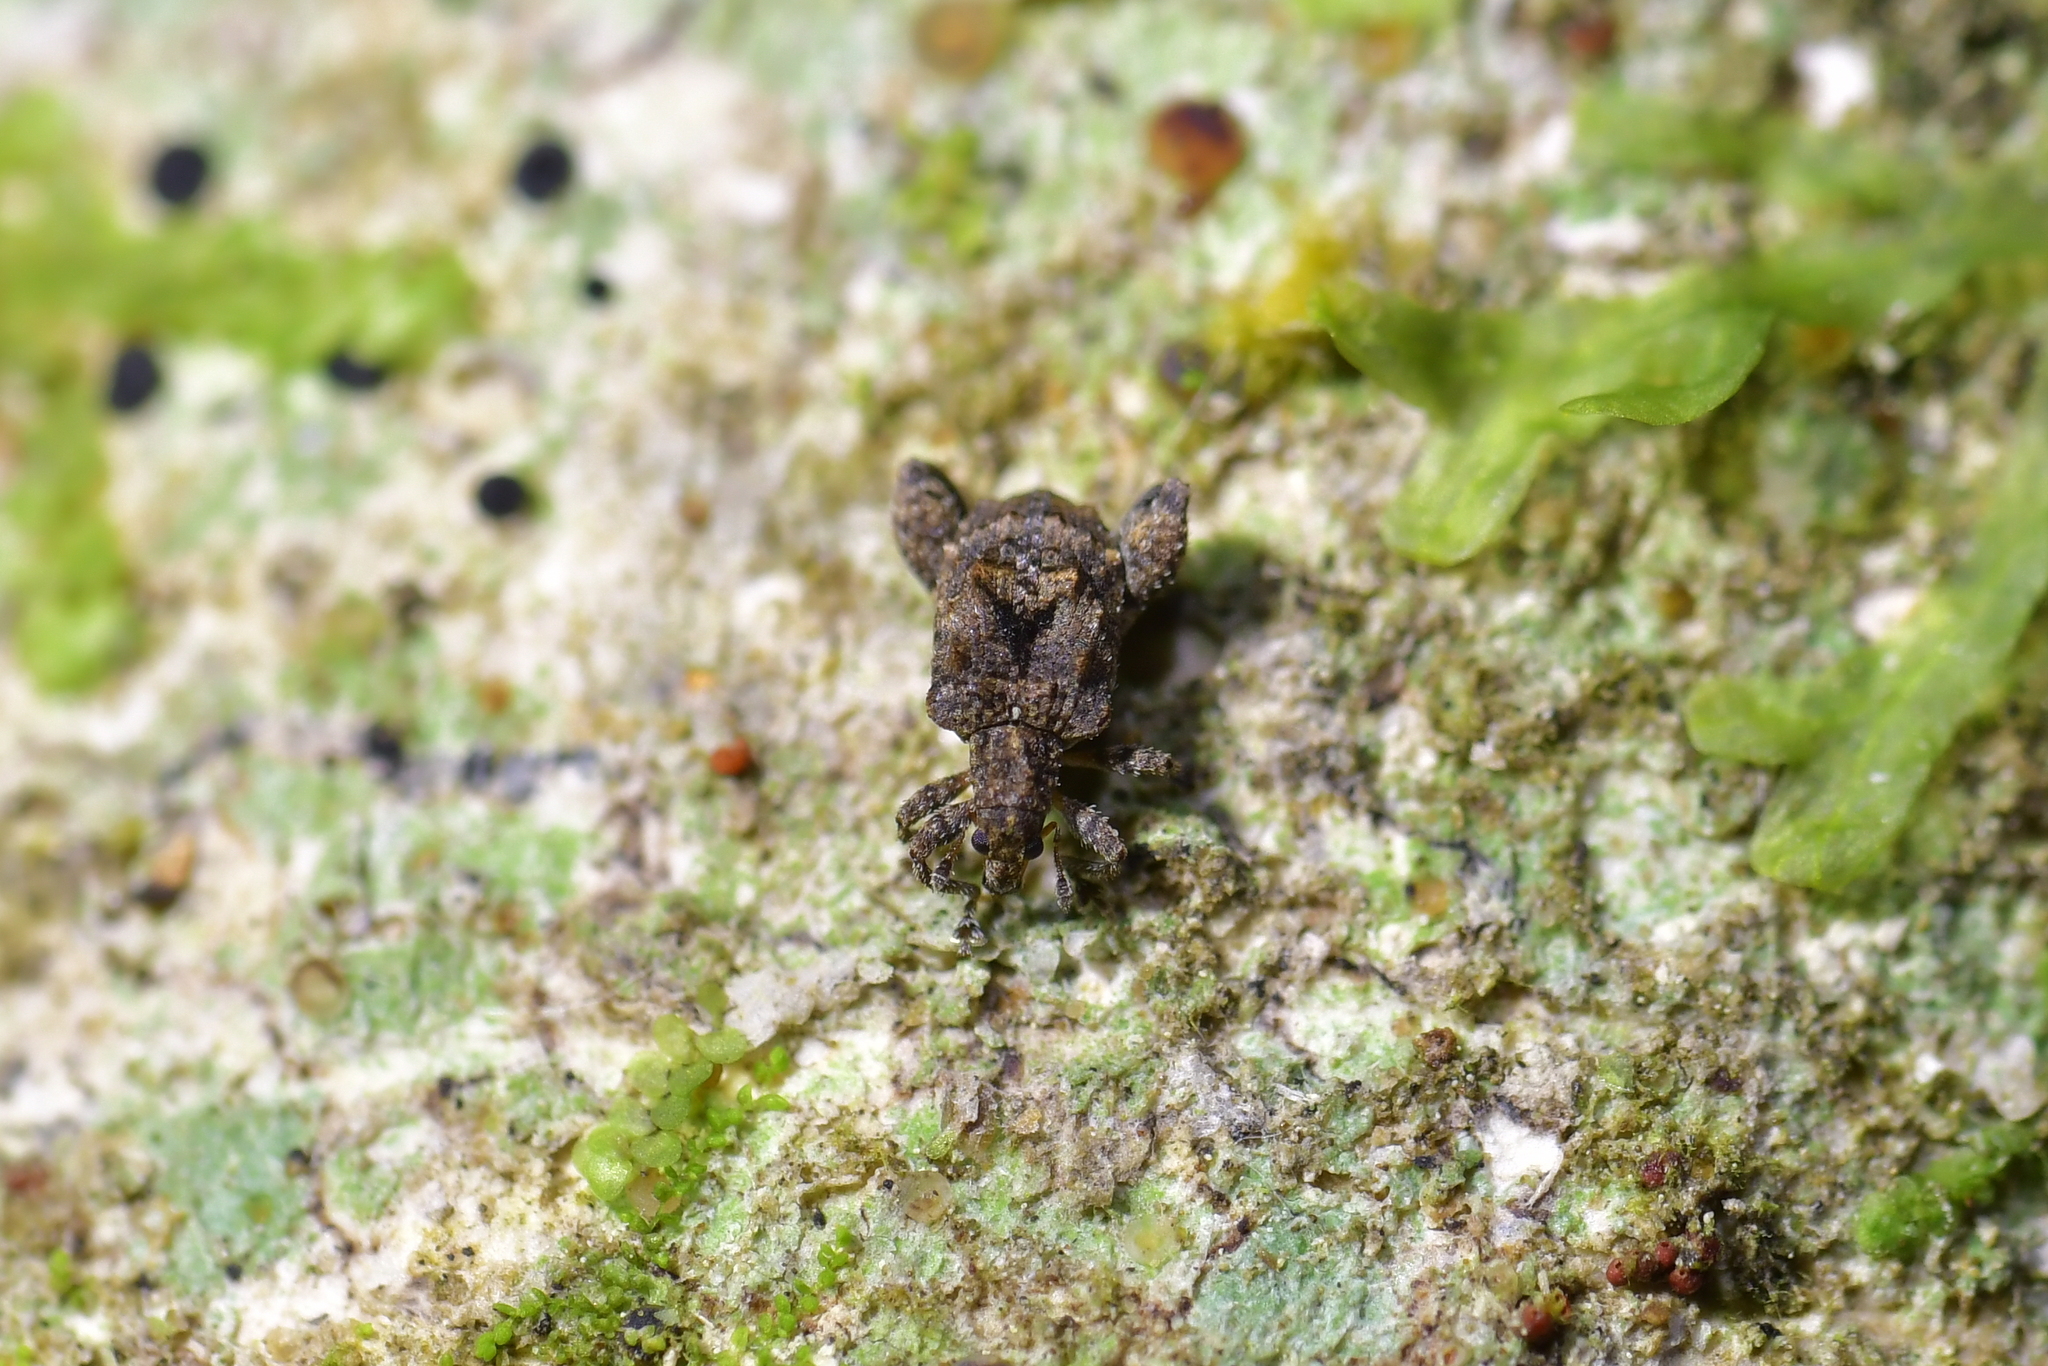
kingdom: Animalia
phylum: Arthropoda
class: Insecta
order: Coleoptera
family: Curculionidae
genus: Pactola
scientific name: Pactola variabilis
